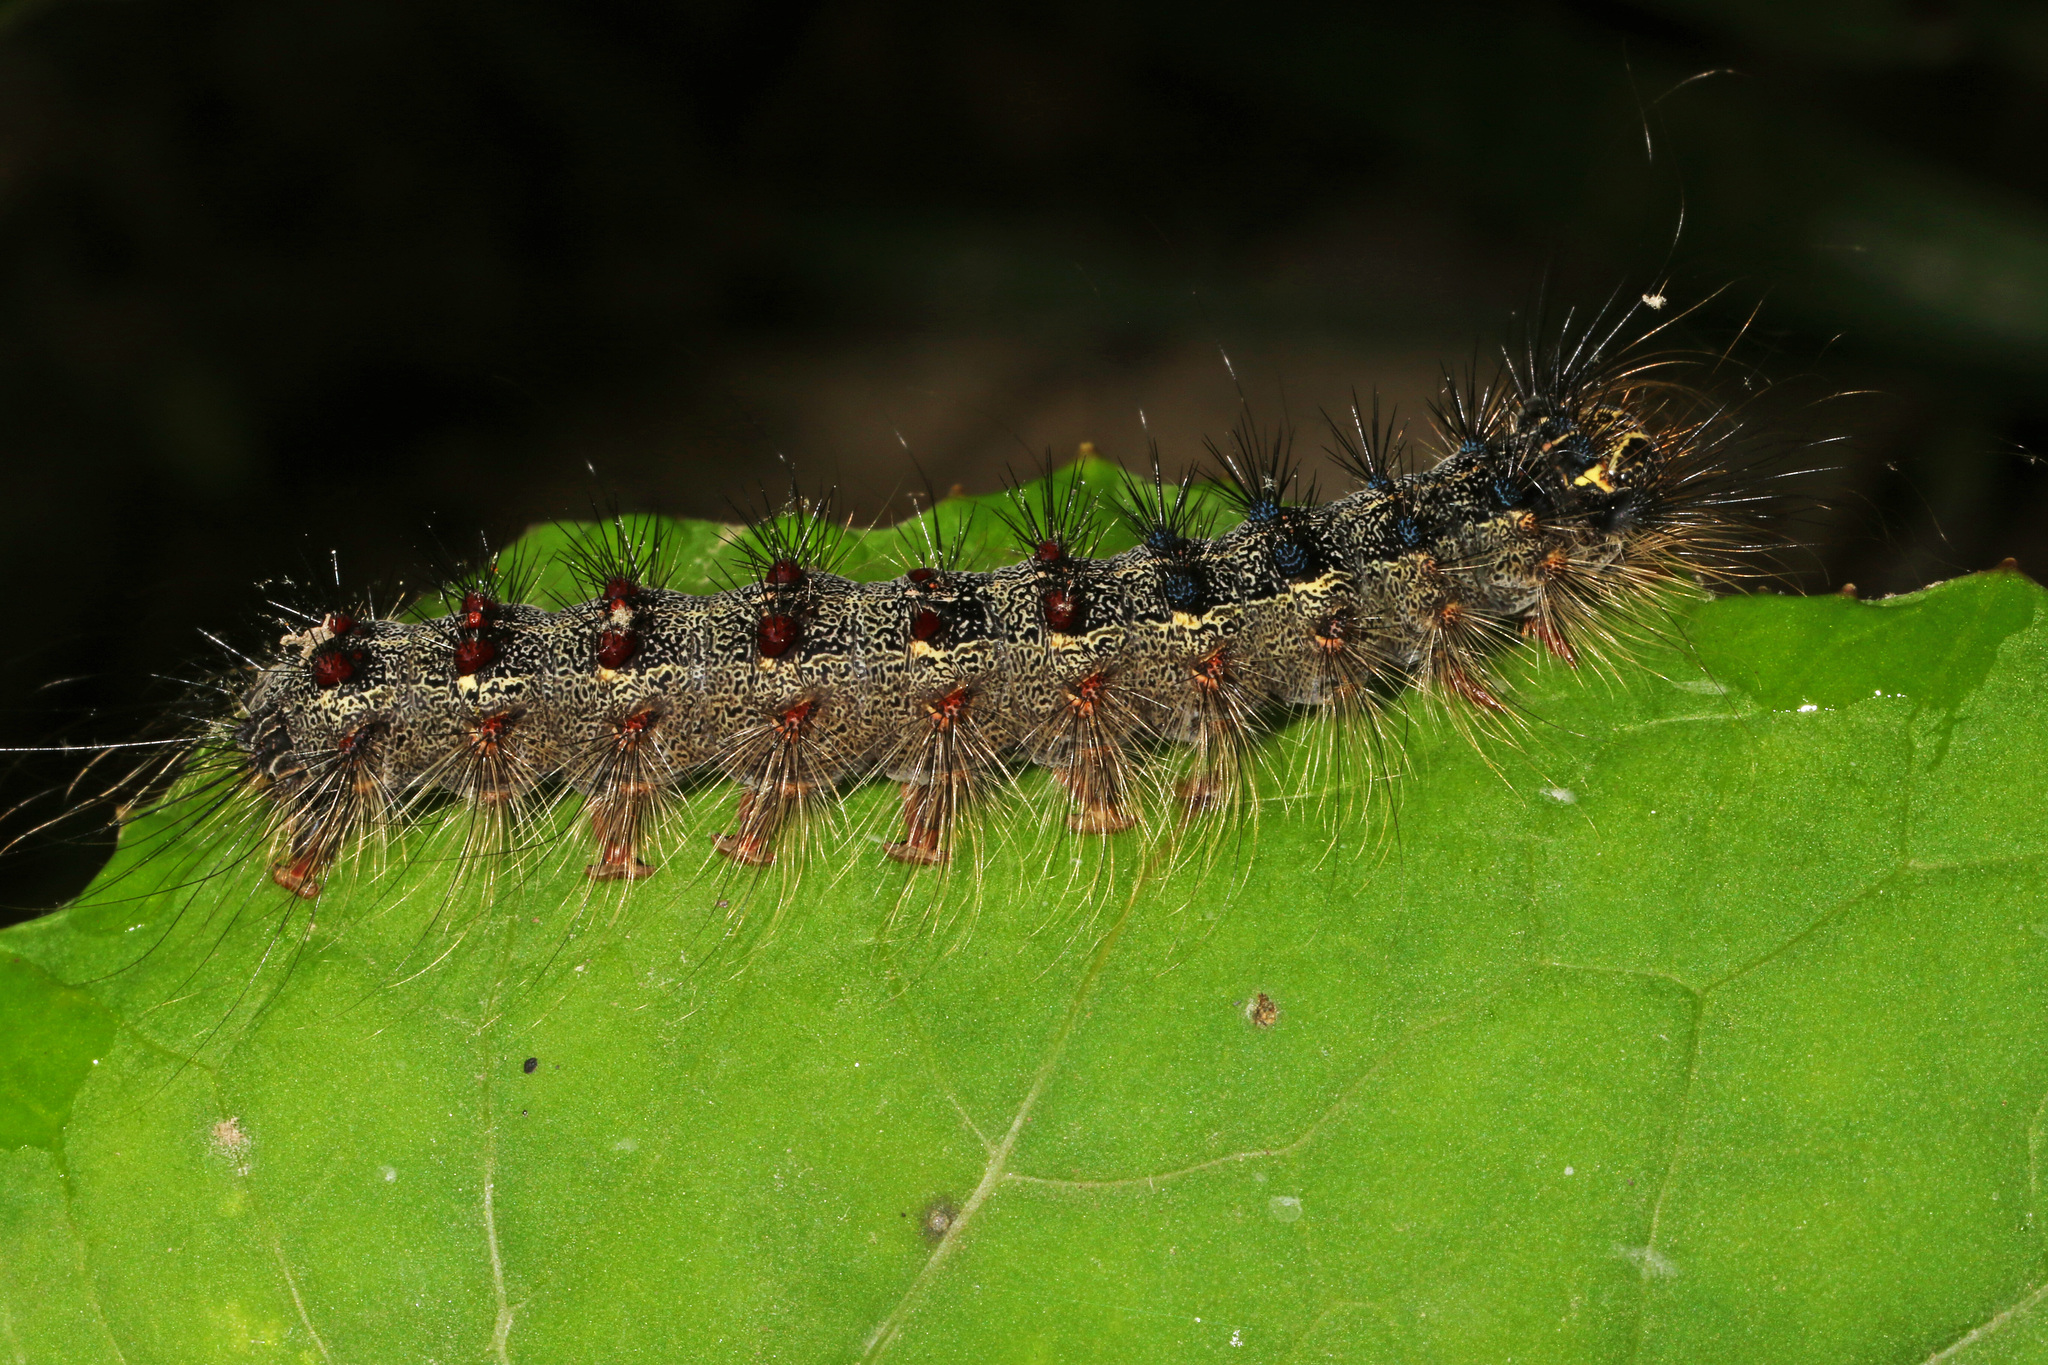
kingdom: Animalia
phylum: Arthropoda
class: Insecta
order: Lepidoptera
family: Erebidae
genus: Lymantria
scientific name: Lymantria dispar
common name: Gypsy moth
